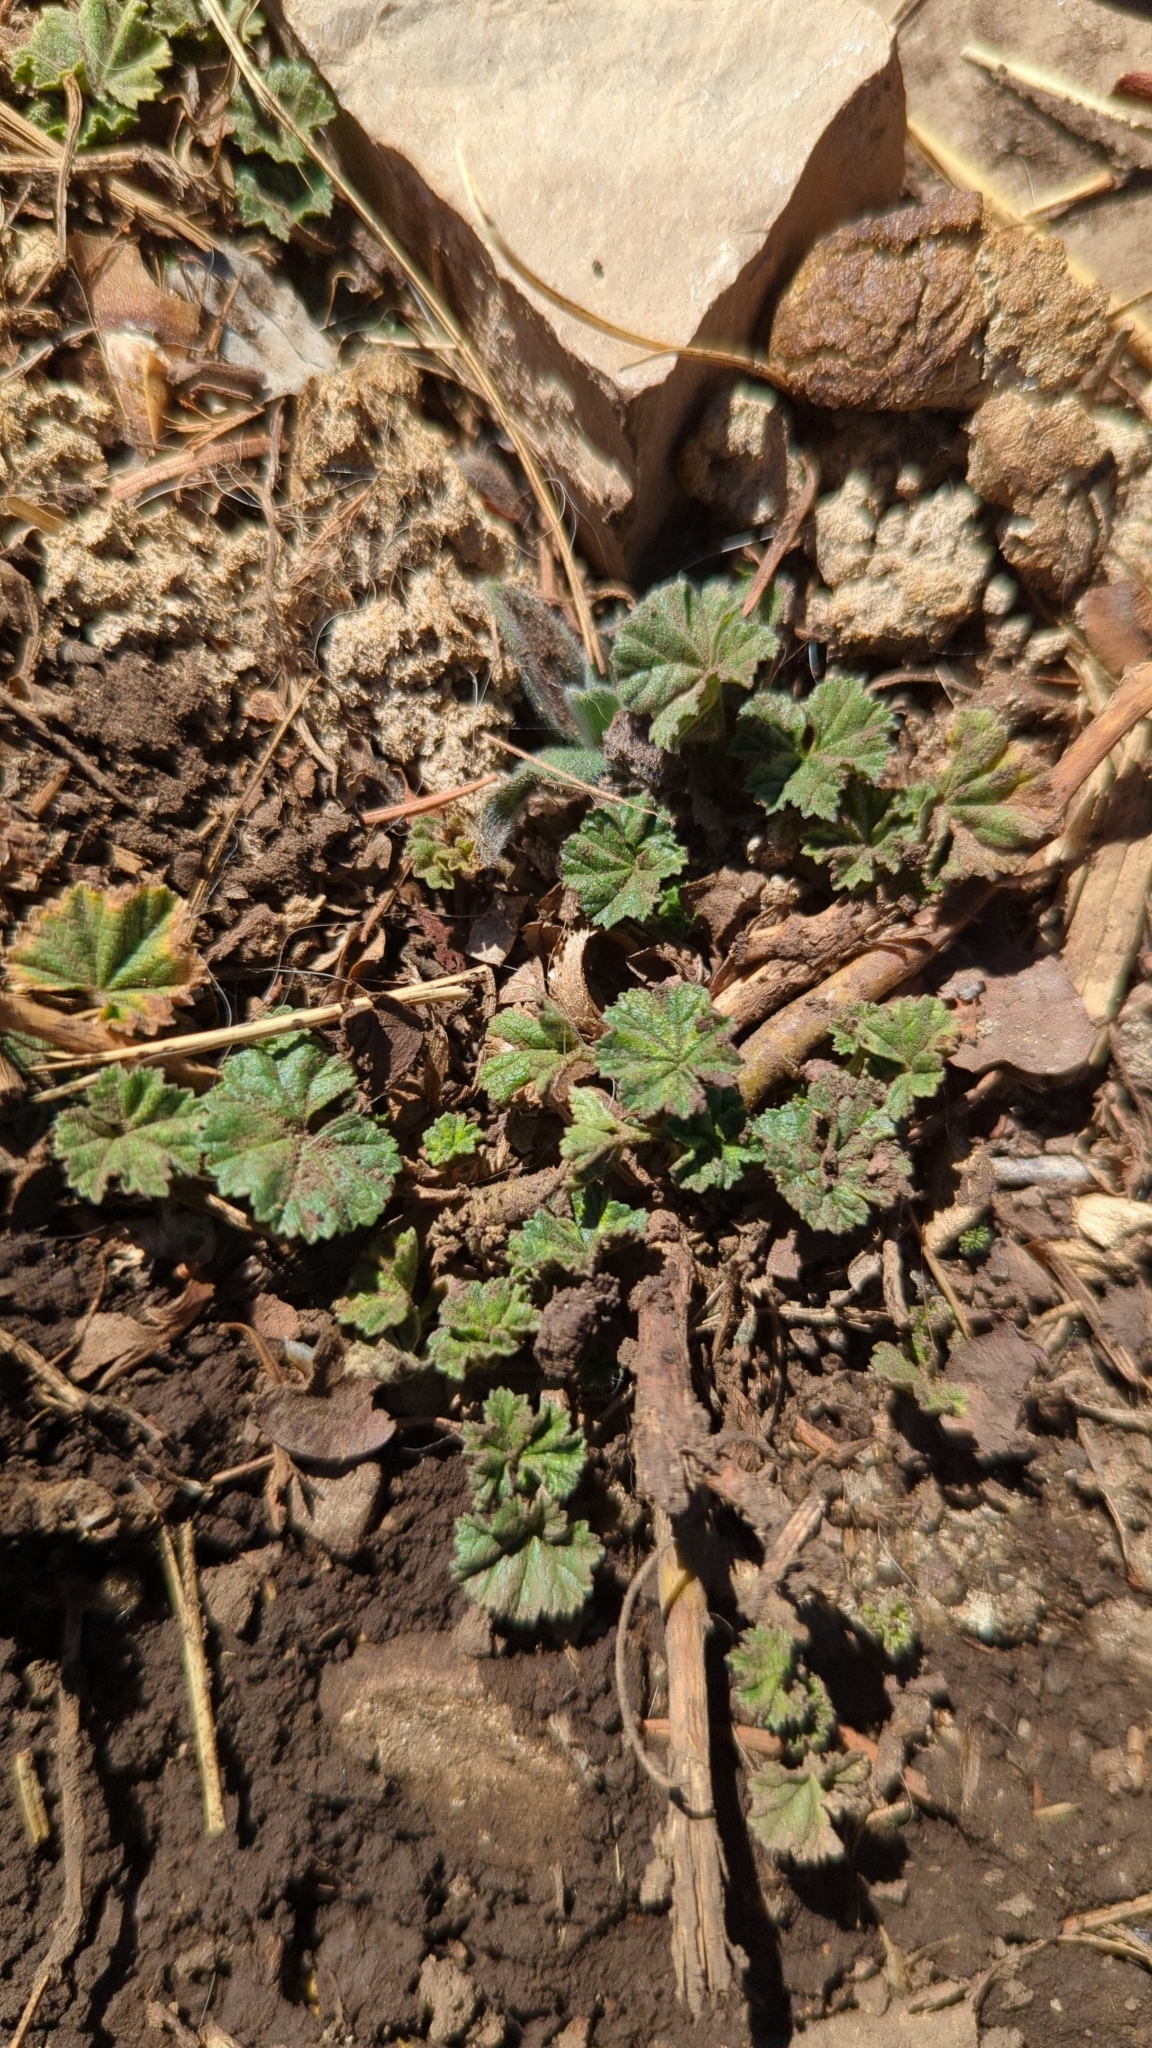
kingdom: Plantae
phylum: Tracheophyta
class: Magnoliopsida
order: Malvales
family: Malvaceae
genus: Malva
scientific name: Malva neglecta
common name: Common mallow
